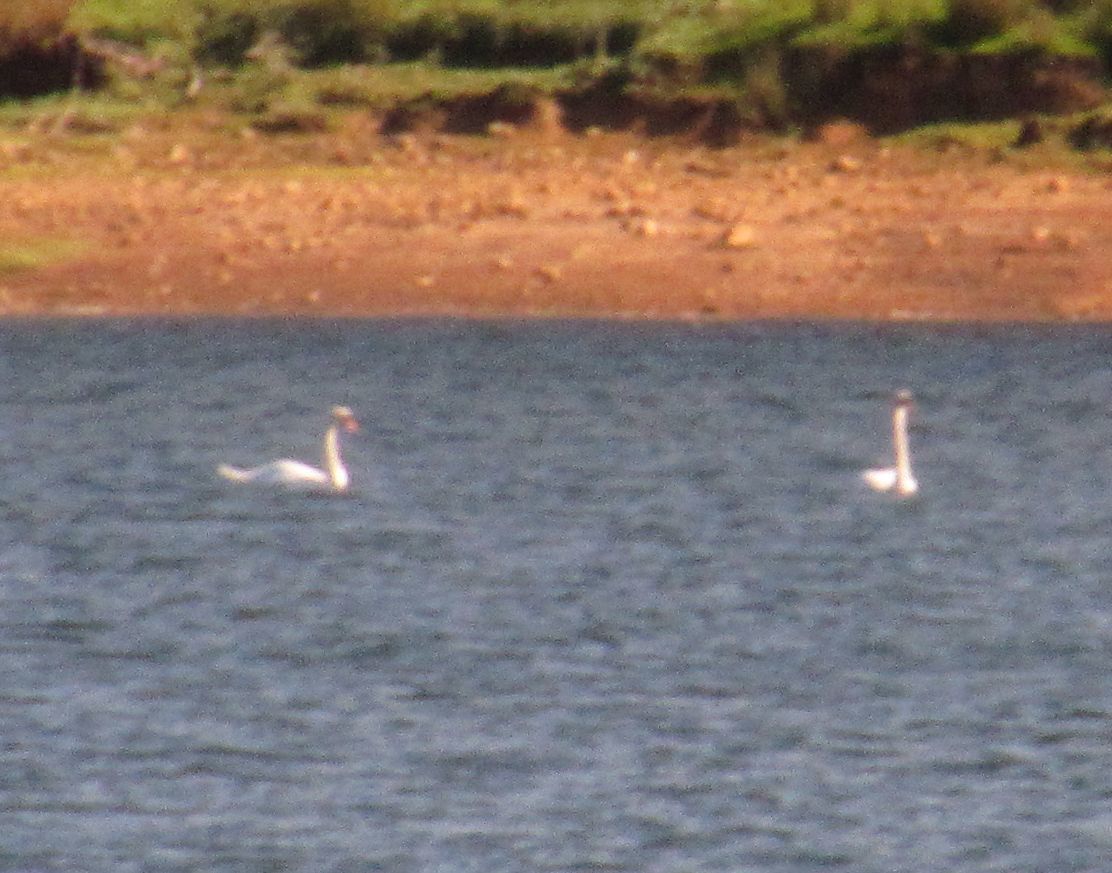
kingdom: Animalia
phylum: Chordata
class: Aves
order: Anseriformes
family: Anatidae
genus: Cygnus
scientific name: Cygnus olor
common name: Mute swan
